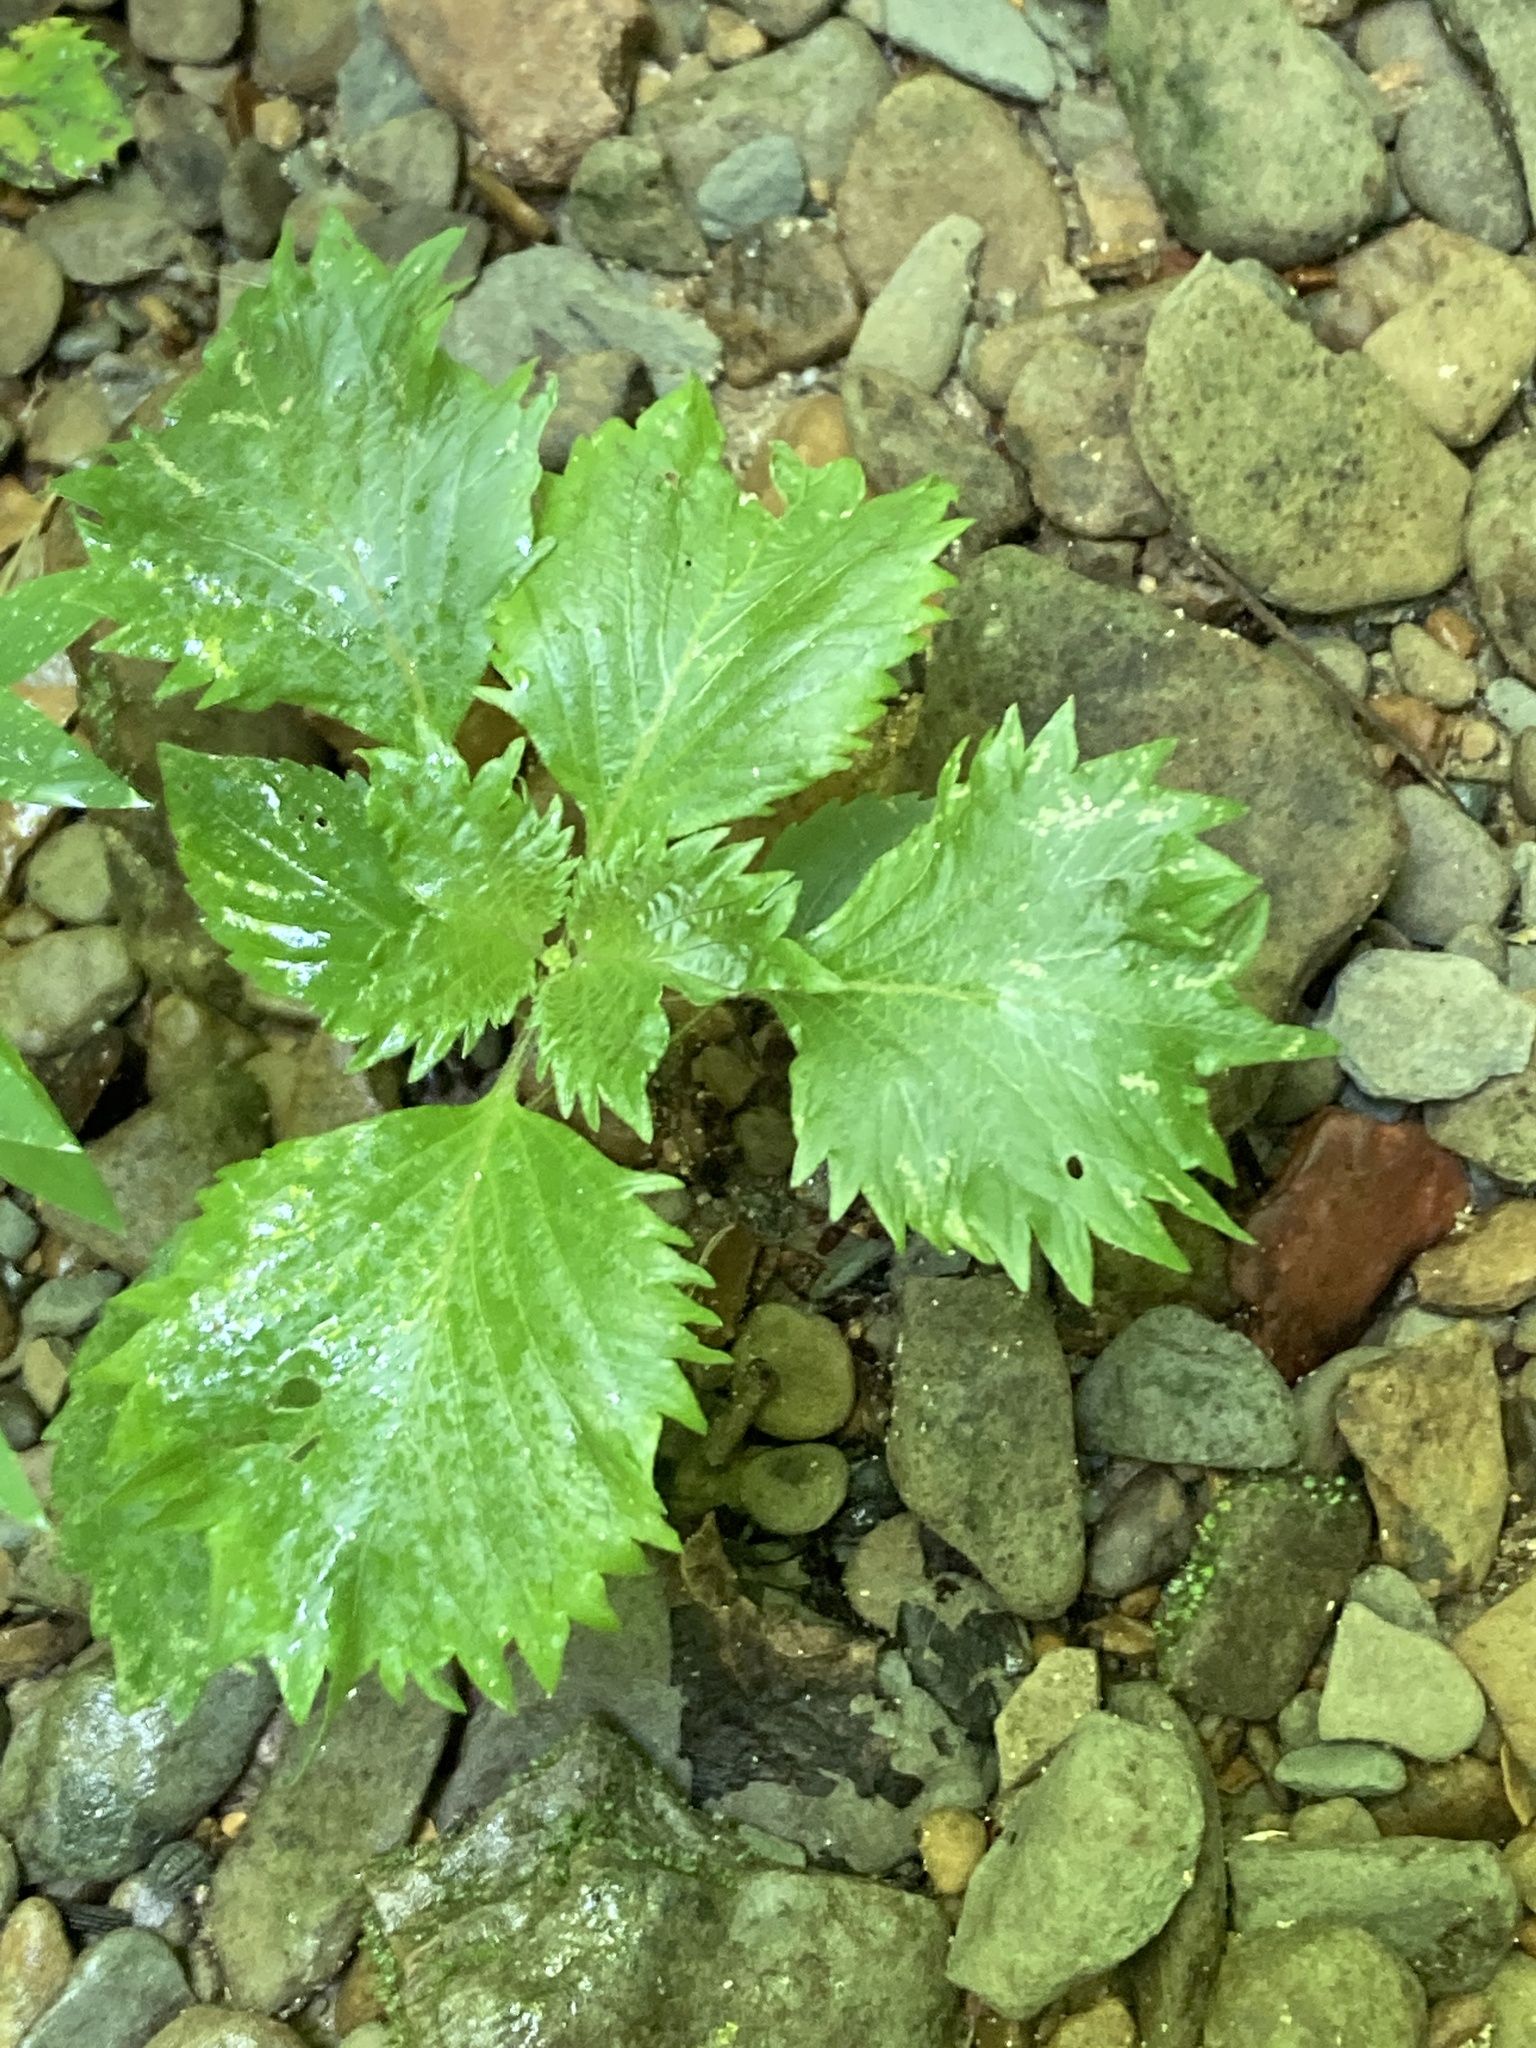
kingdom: Plantae
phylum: Tracheophyta
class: Magnoliopsida
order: Lamiales
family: Lamiaceae
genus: Perilla
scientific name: Perilla frutescens
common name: Perilla
